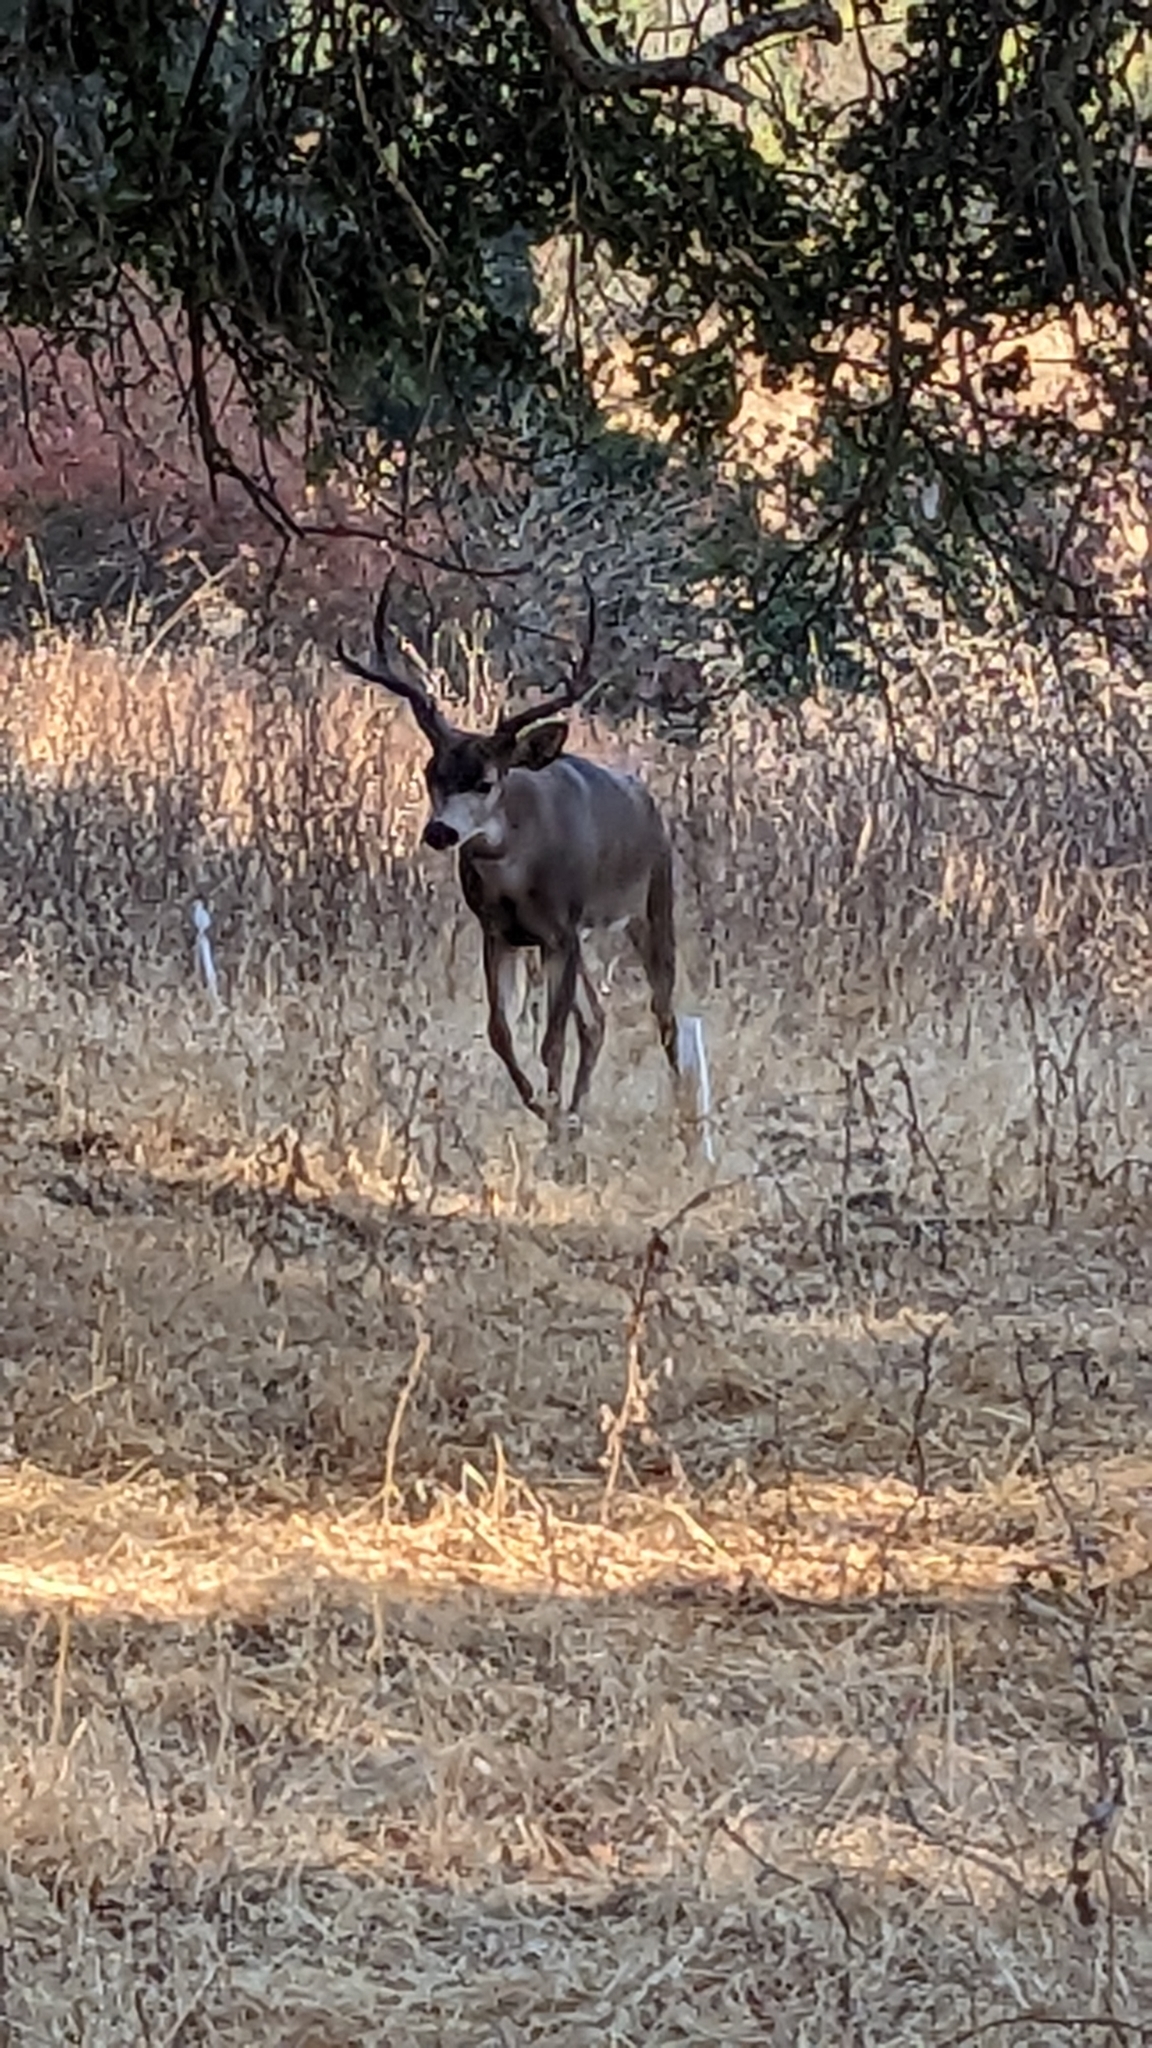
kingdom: Animalia
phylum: Chordata
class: Mammalia
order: Artiodactyla
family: Cervidae
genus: Odocoileus
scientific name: Odocoileus hemionus
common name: Mule deer
